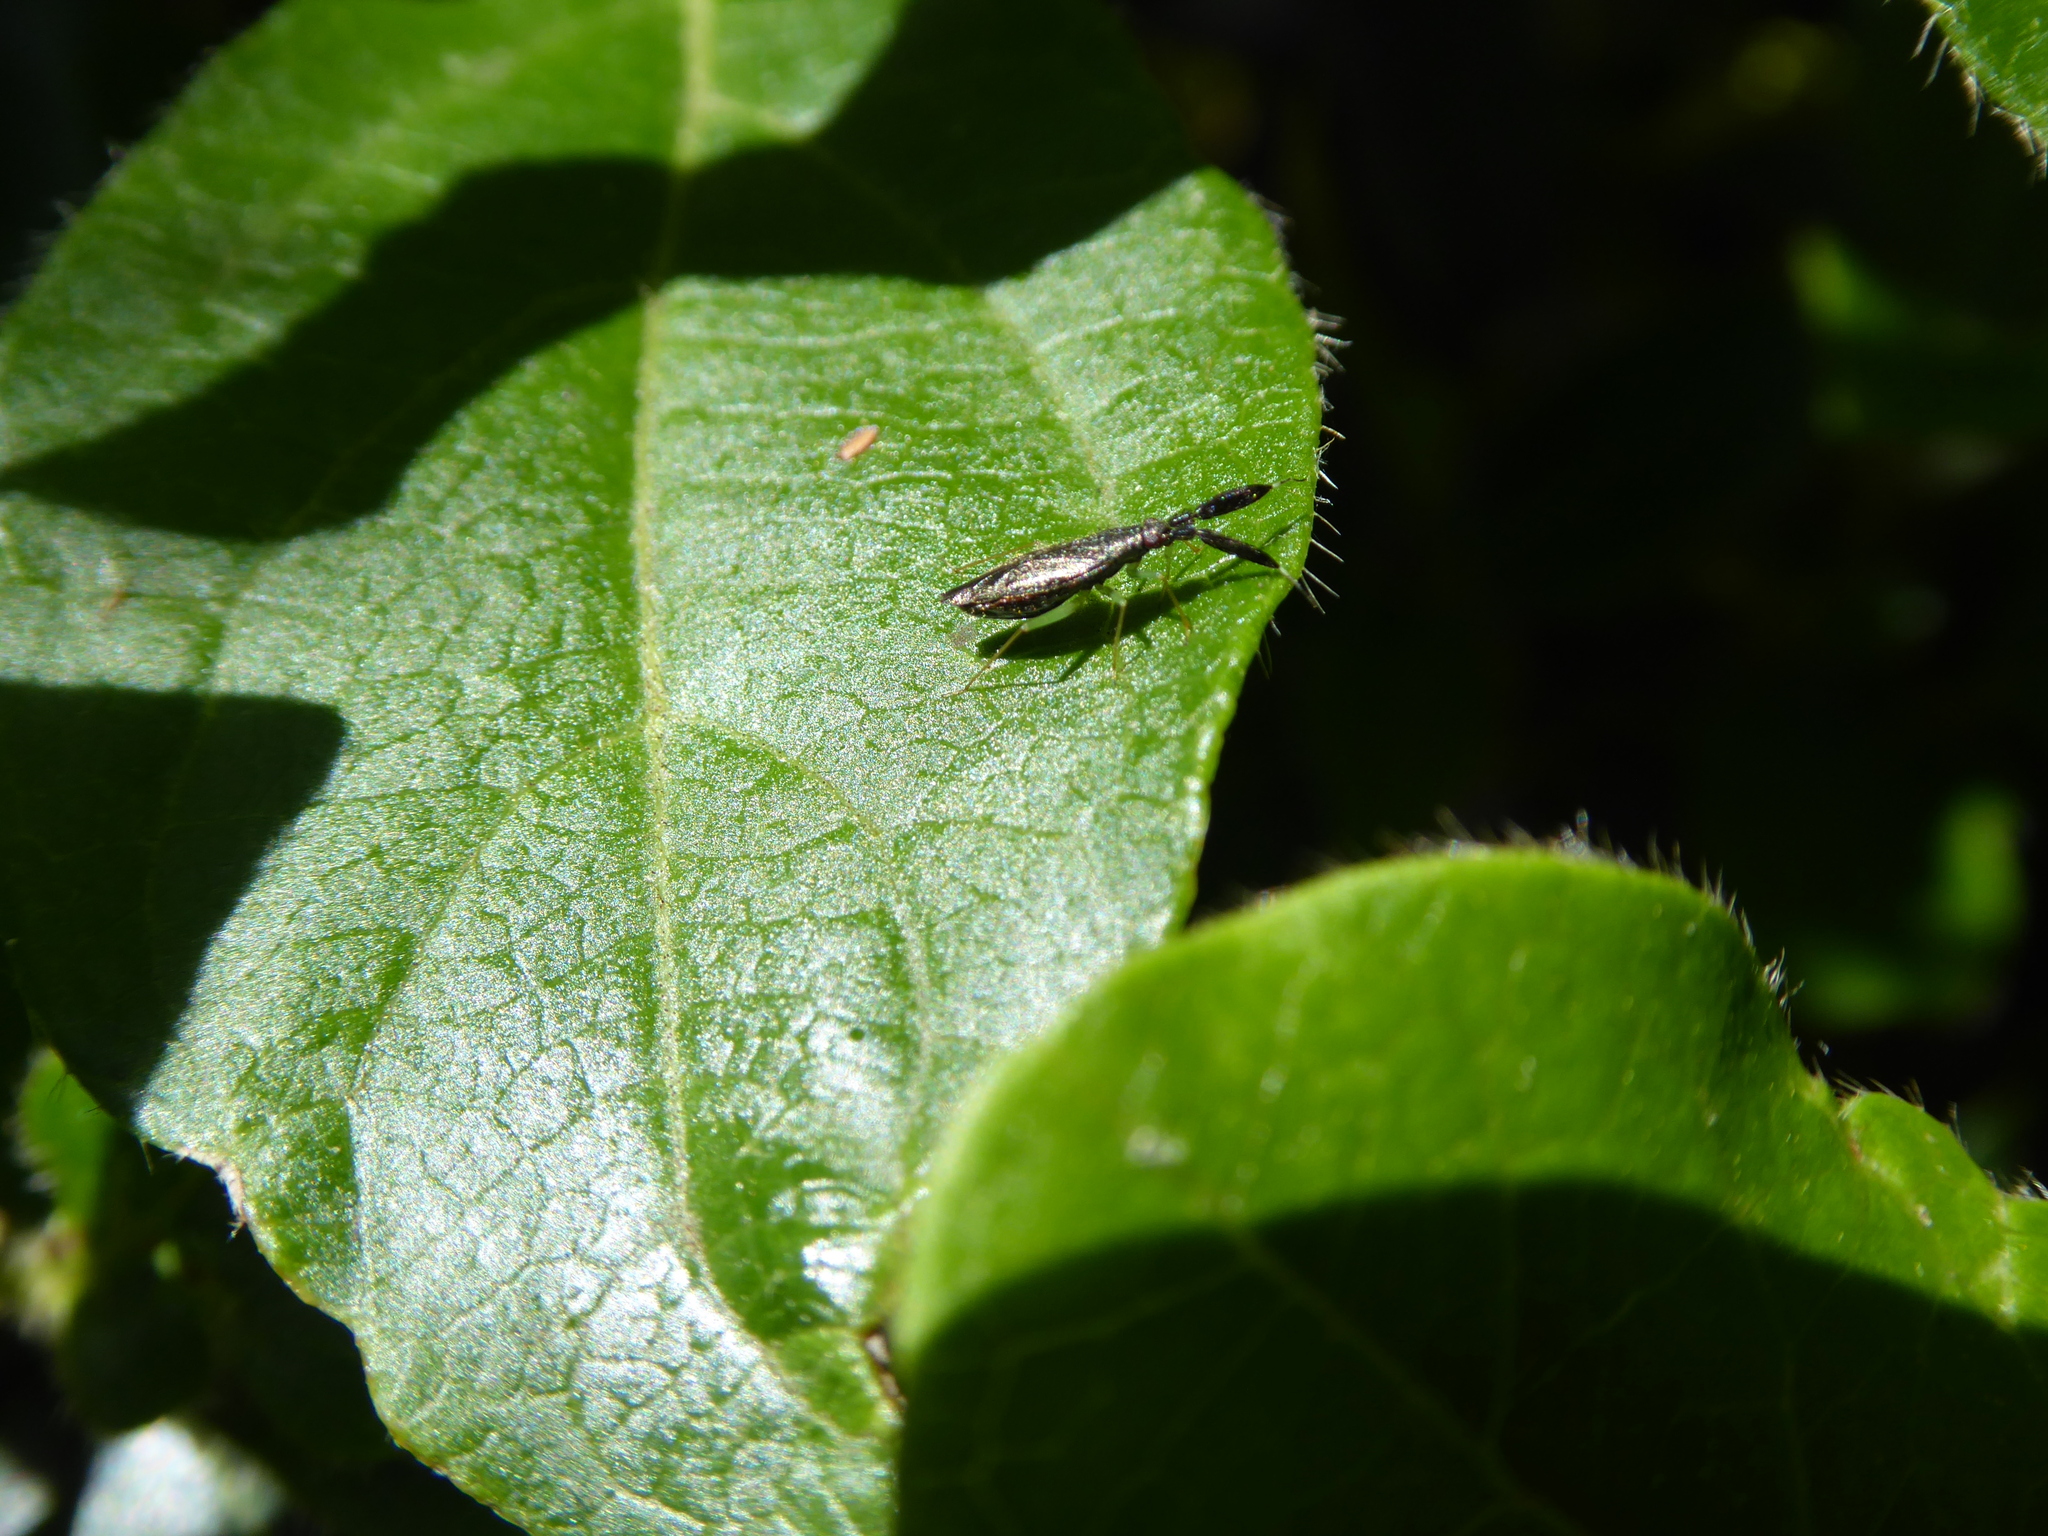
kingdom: Animalia
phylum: Arthropoda
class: Insecta
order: Hemiptera
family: Miridae
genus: Heterotoma
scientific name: Heterotoma planicornis
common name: Plant bug
